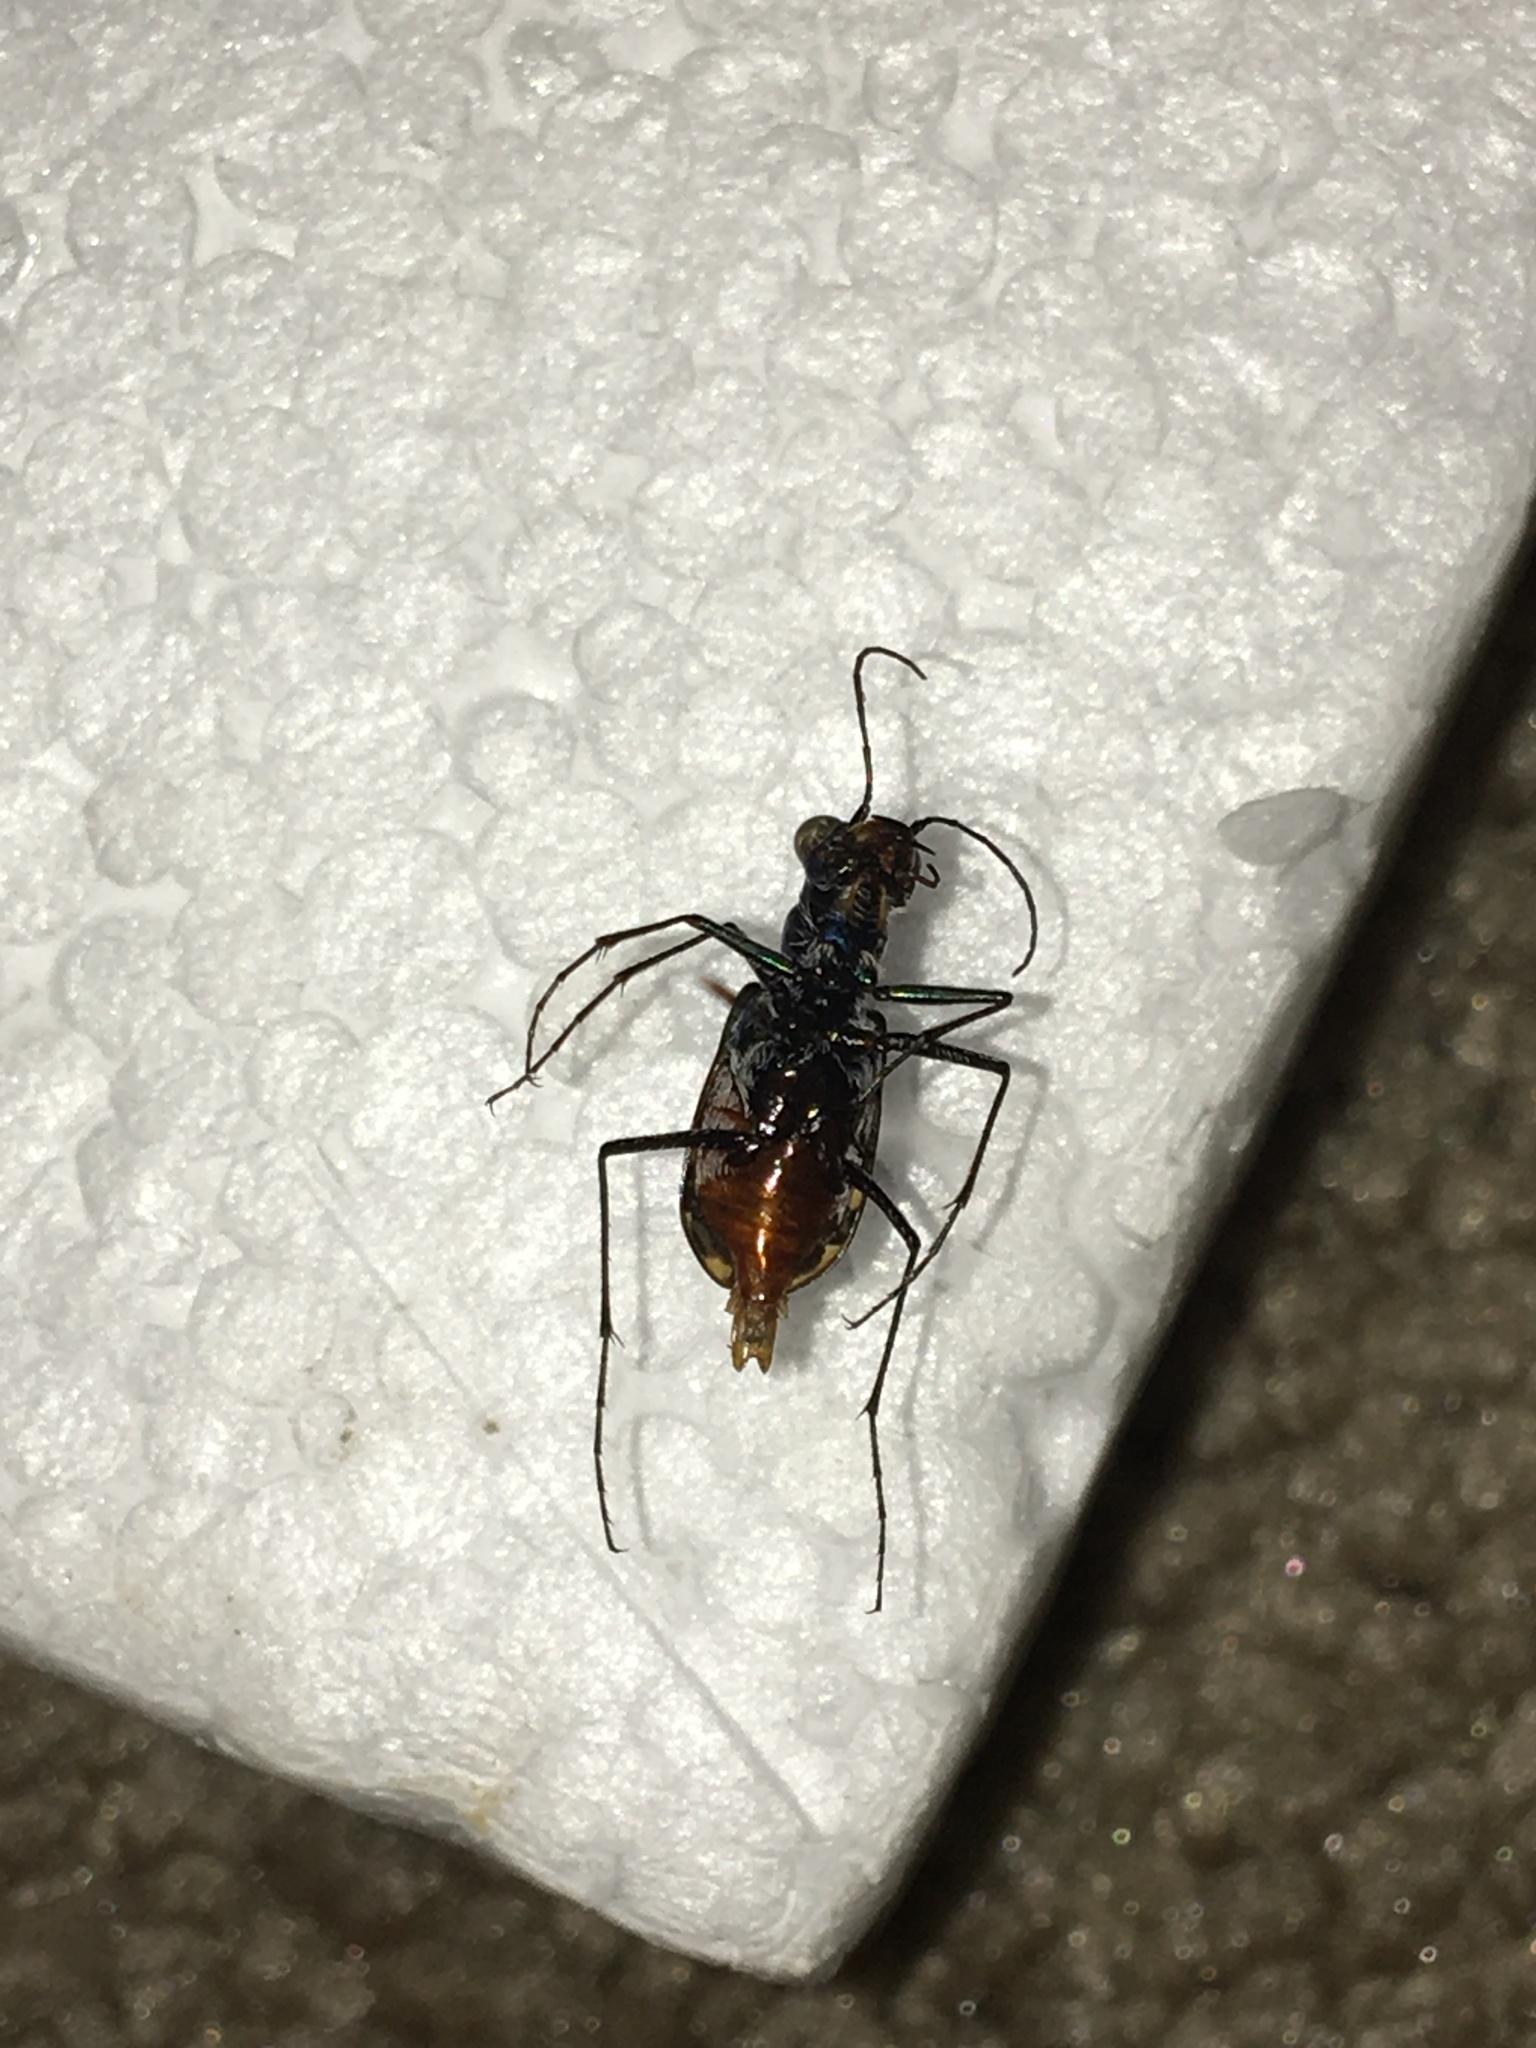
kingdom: Animalia
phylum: Arthropoda
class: Insecta
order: Coleoptera
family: Carabidae
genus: Cicindela
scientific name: Cicindela rufiventris
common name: Eastern red-bellied tiger beetle
